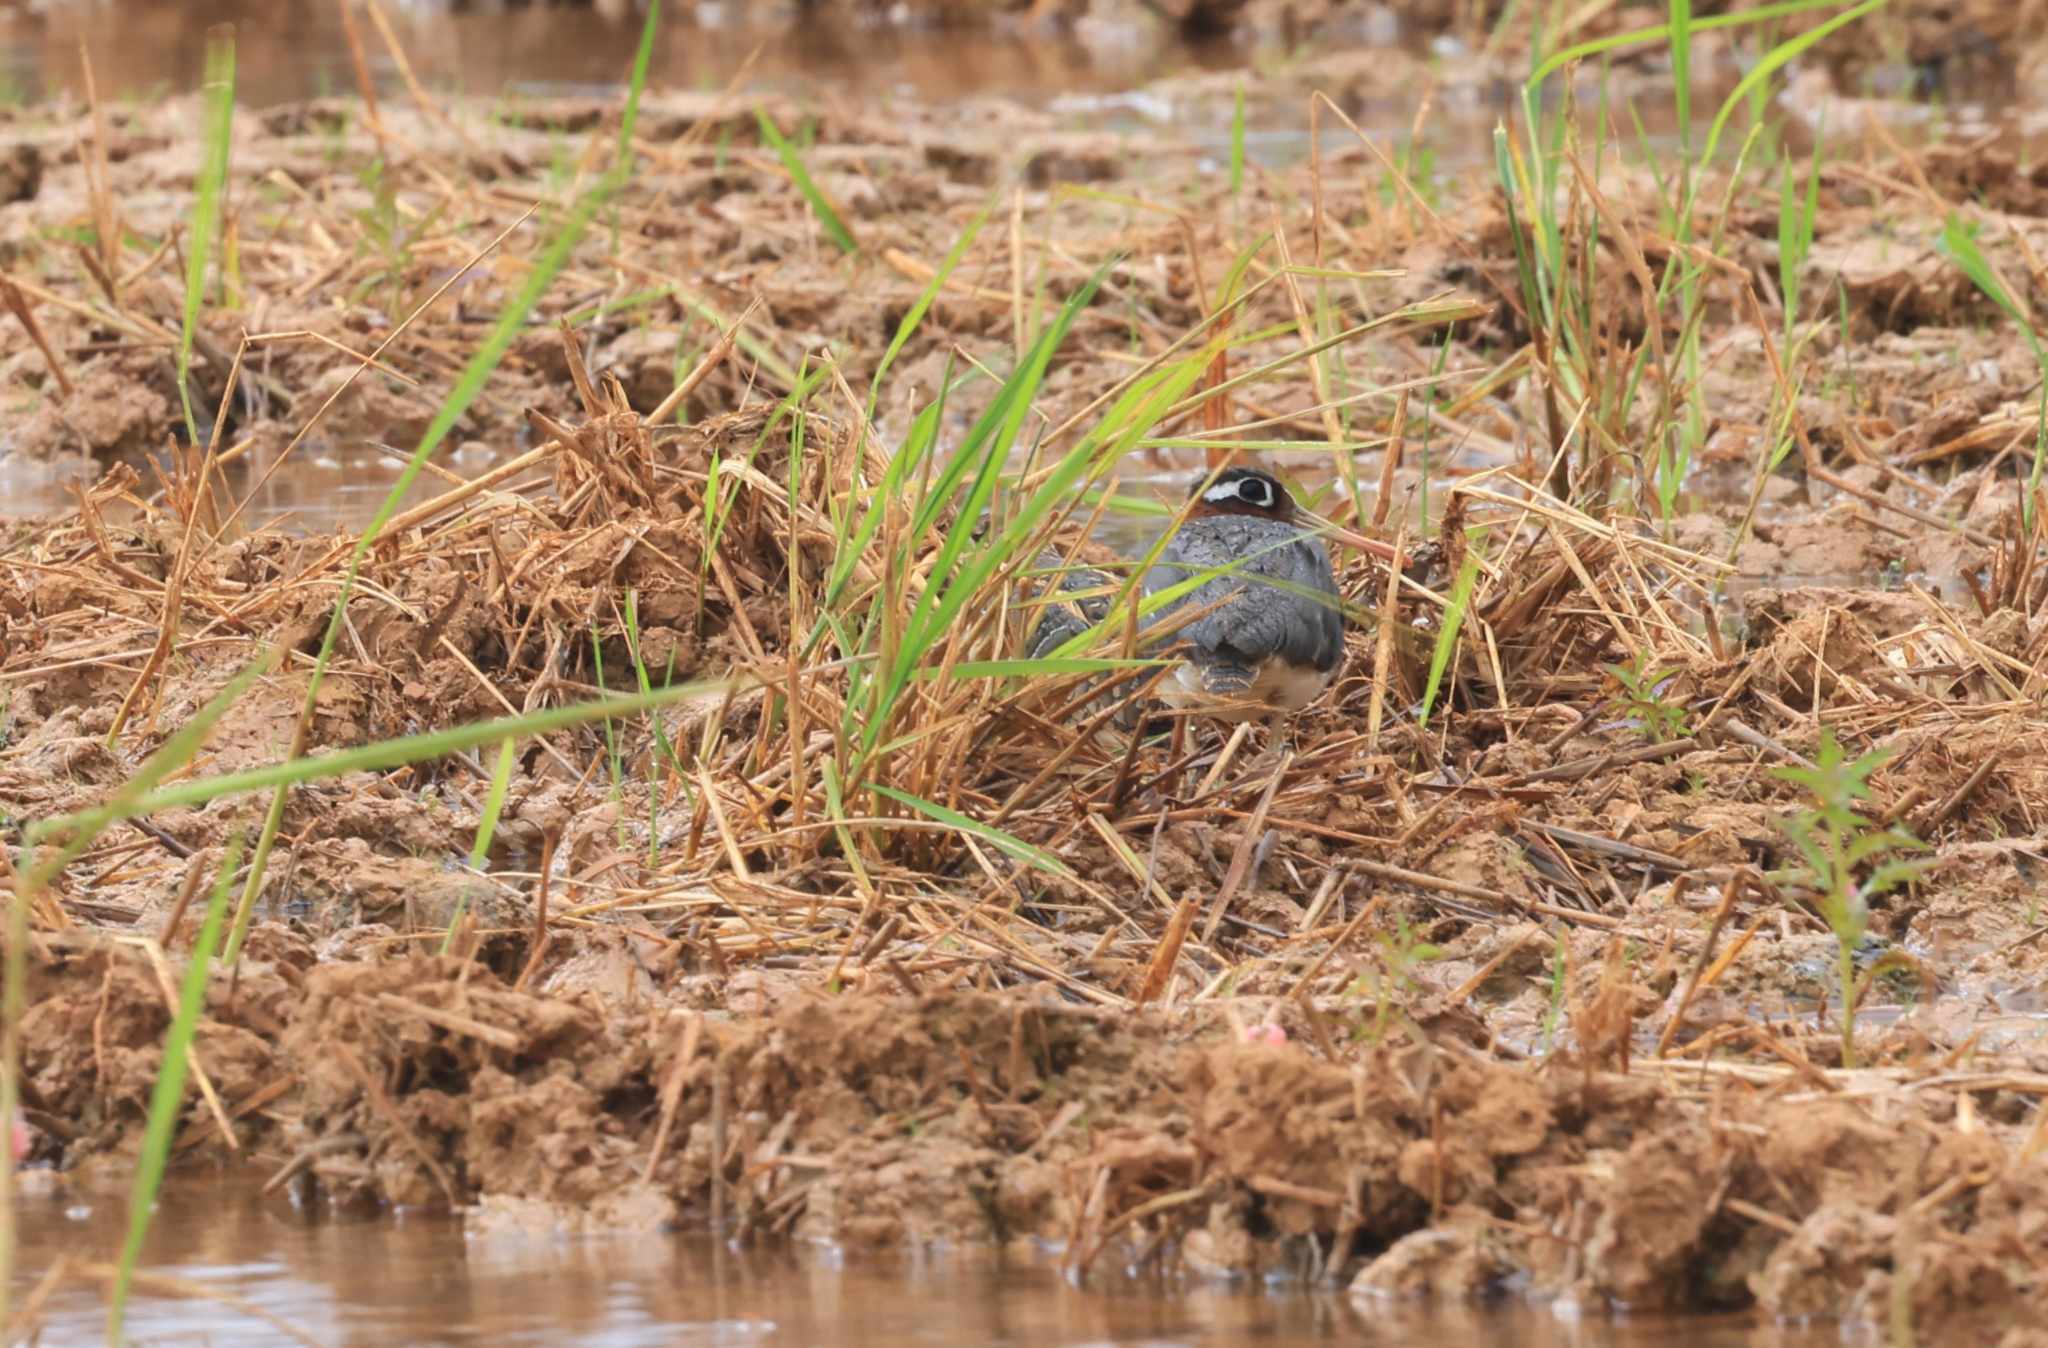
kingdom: Animalia
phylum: Chordata
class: Aves
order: Charadriiformes
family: Rostratulidae
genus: Rostratula
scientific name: Rostratula benghalensis
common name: Greater painted-snipe
